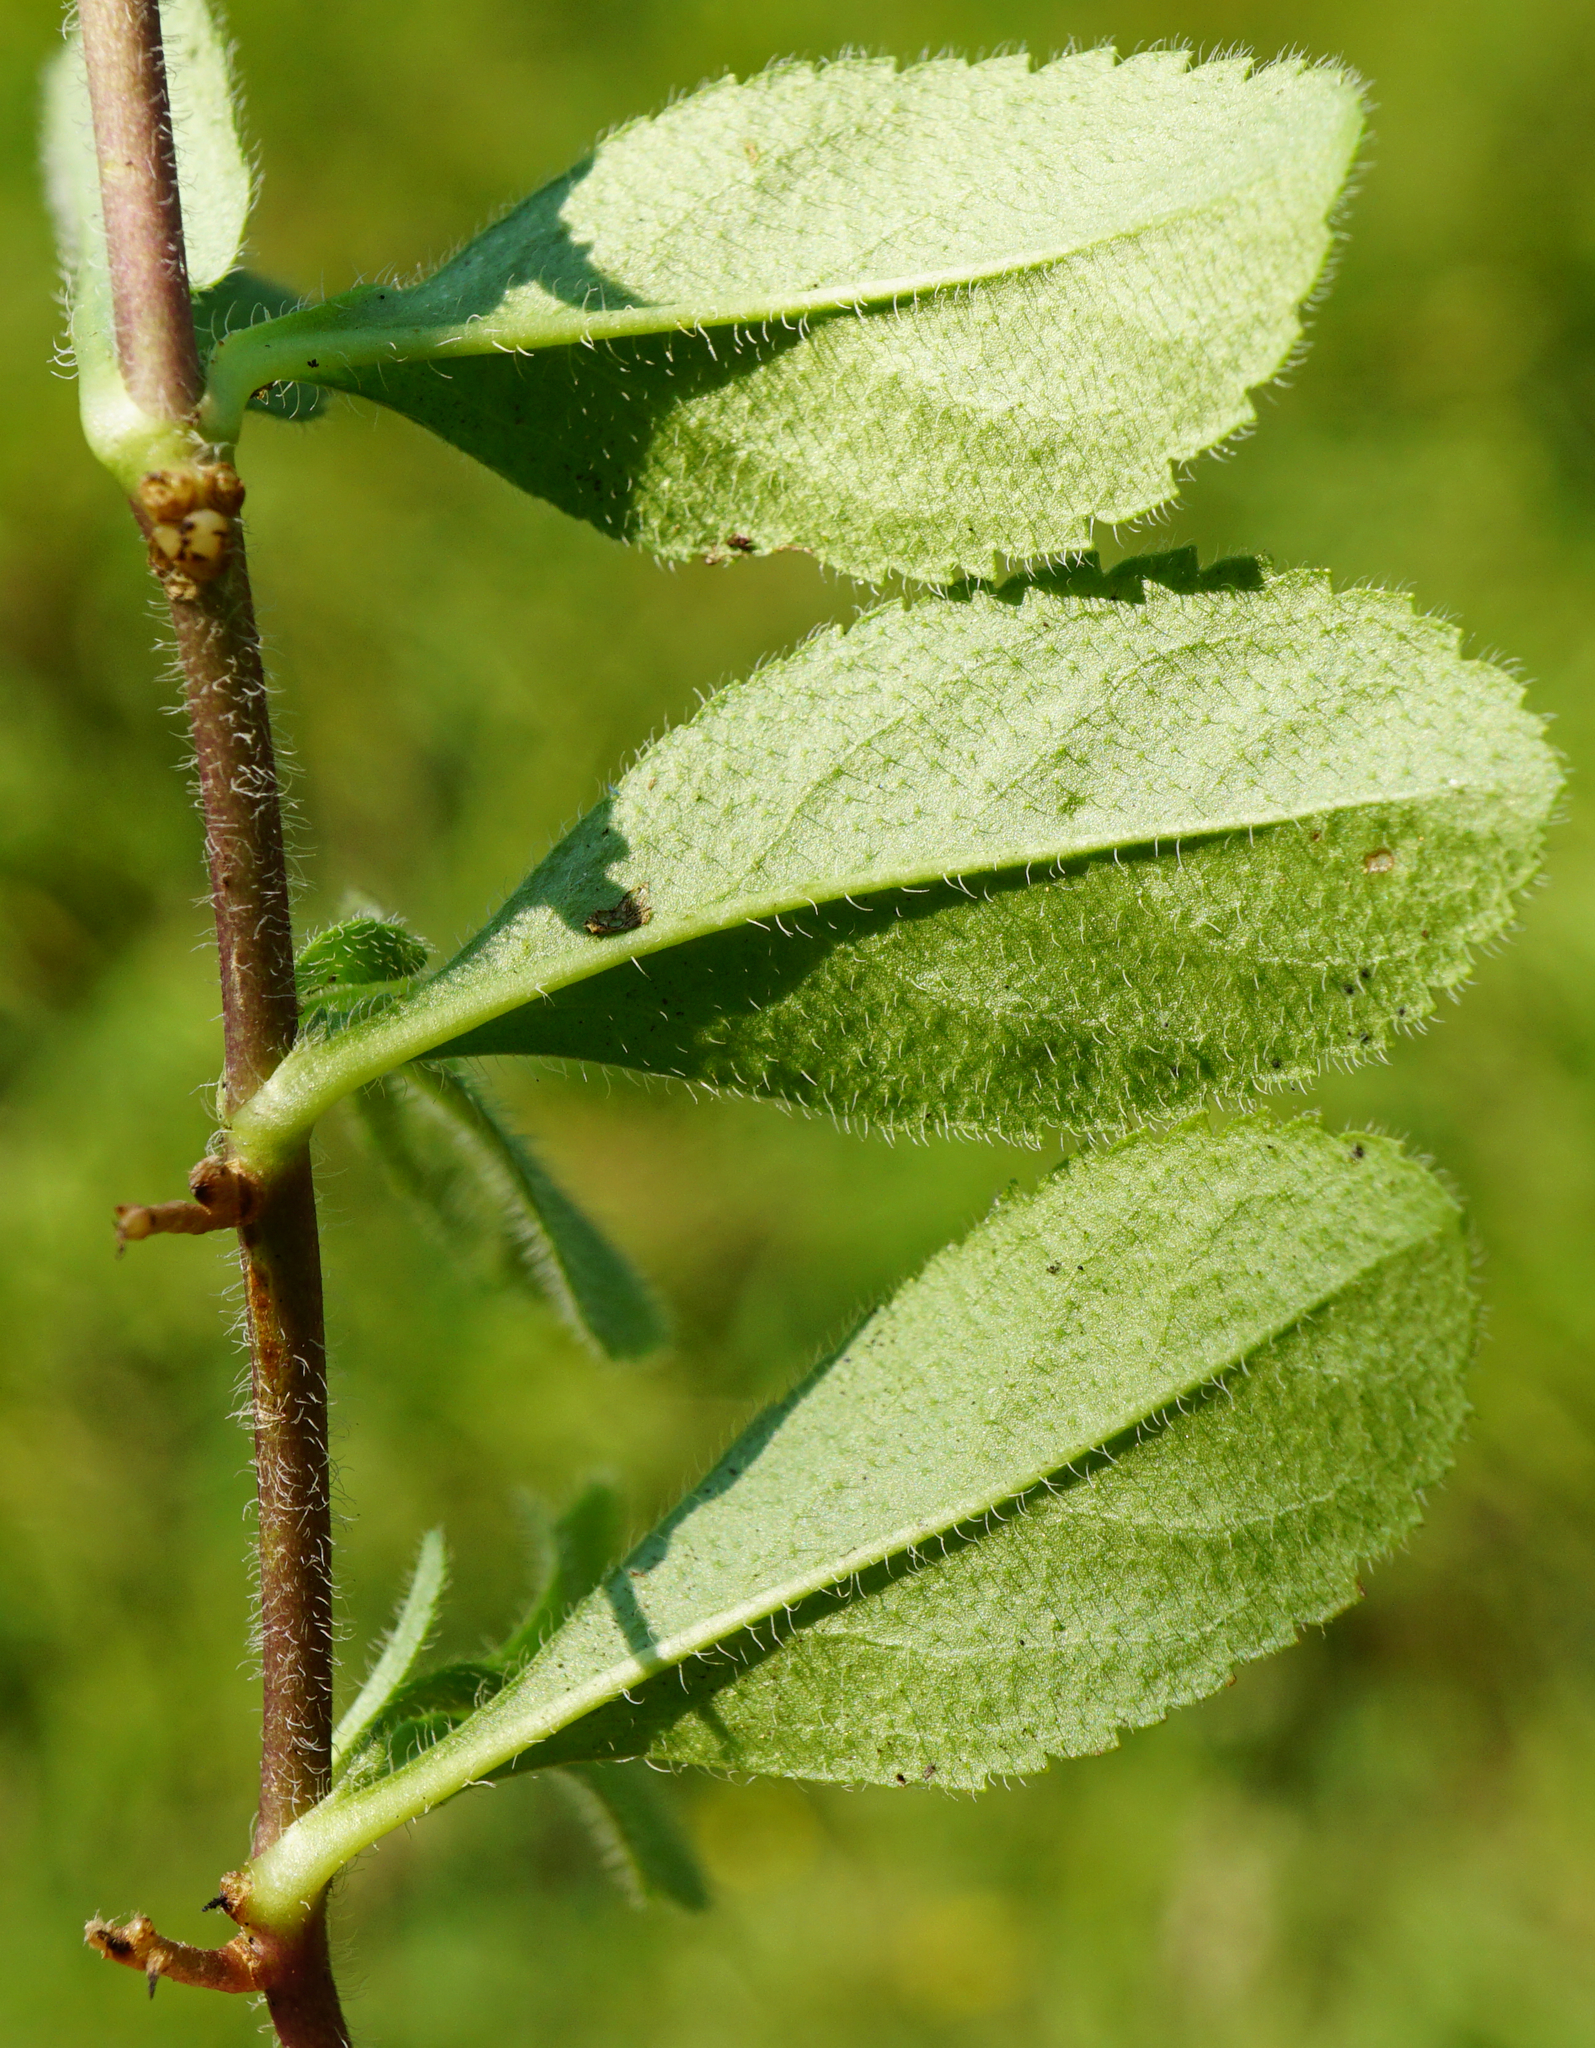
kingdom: Plantae
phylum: Tracheophyta
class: Magnoliopsida
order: Lamiales
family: Plantaginaceae
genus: Veronica
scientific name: Veronica officinalis
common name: Common speedwell
